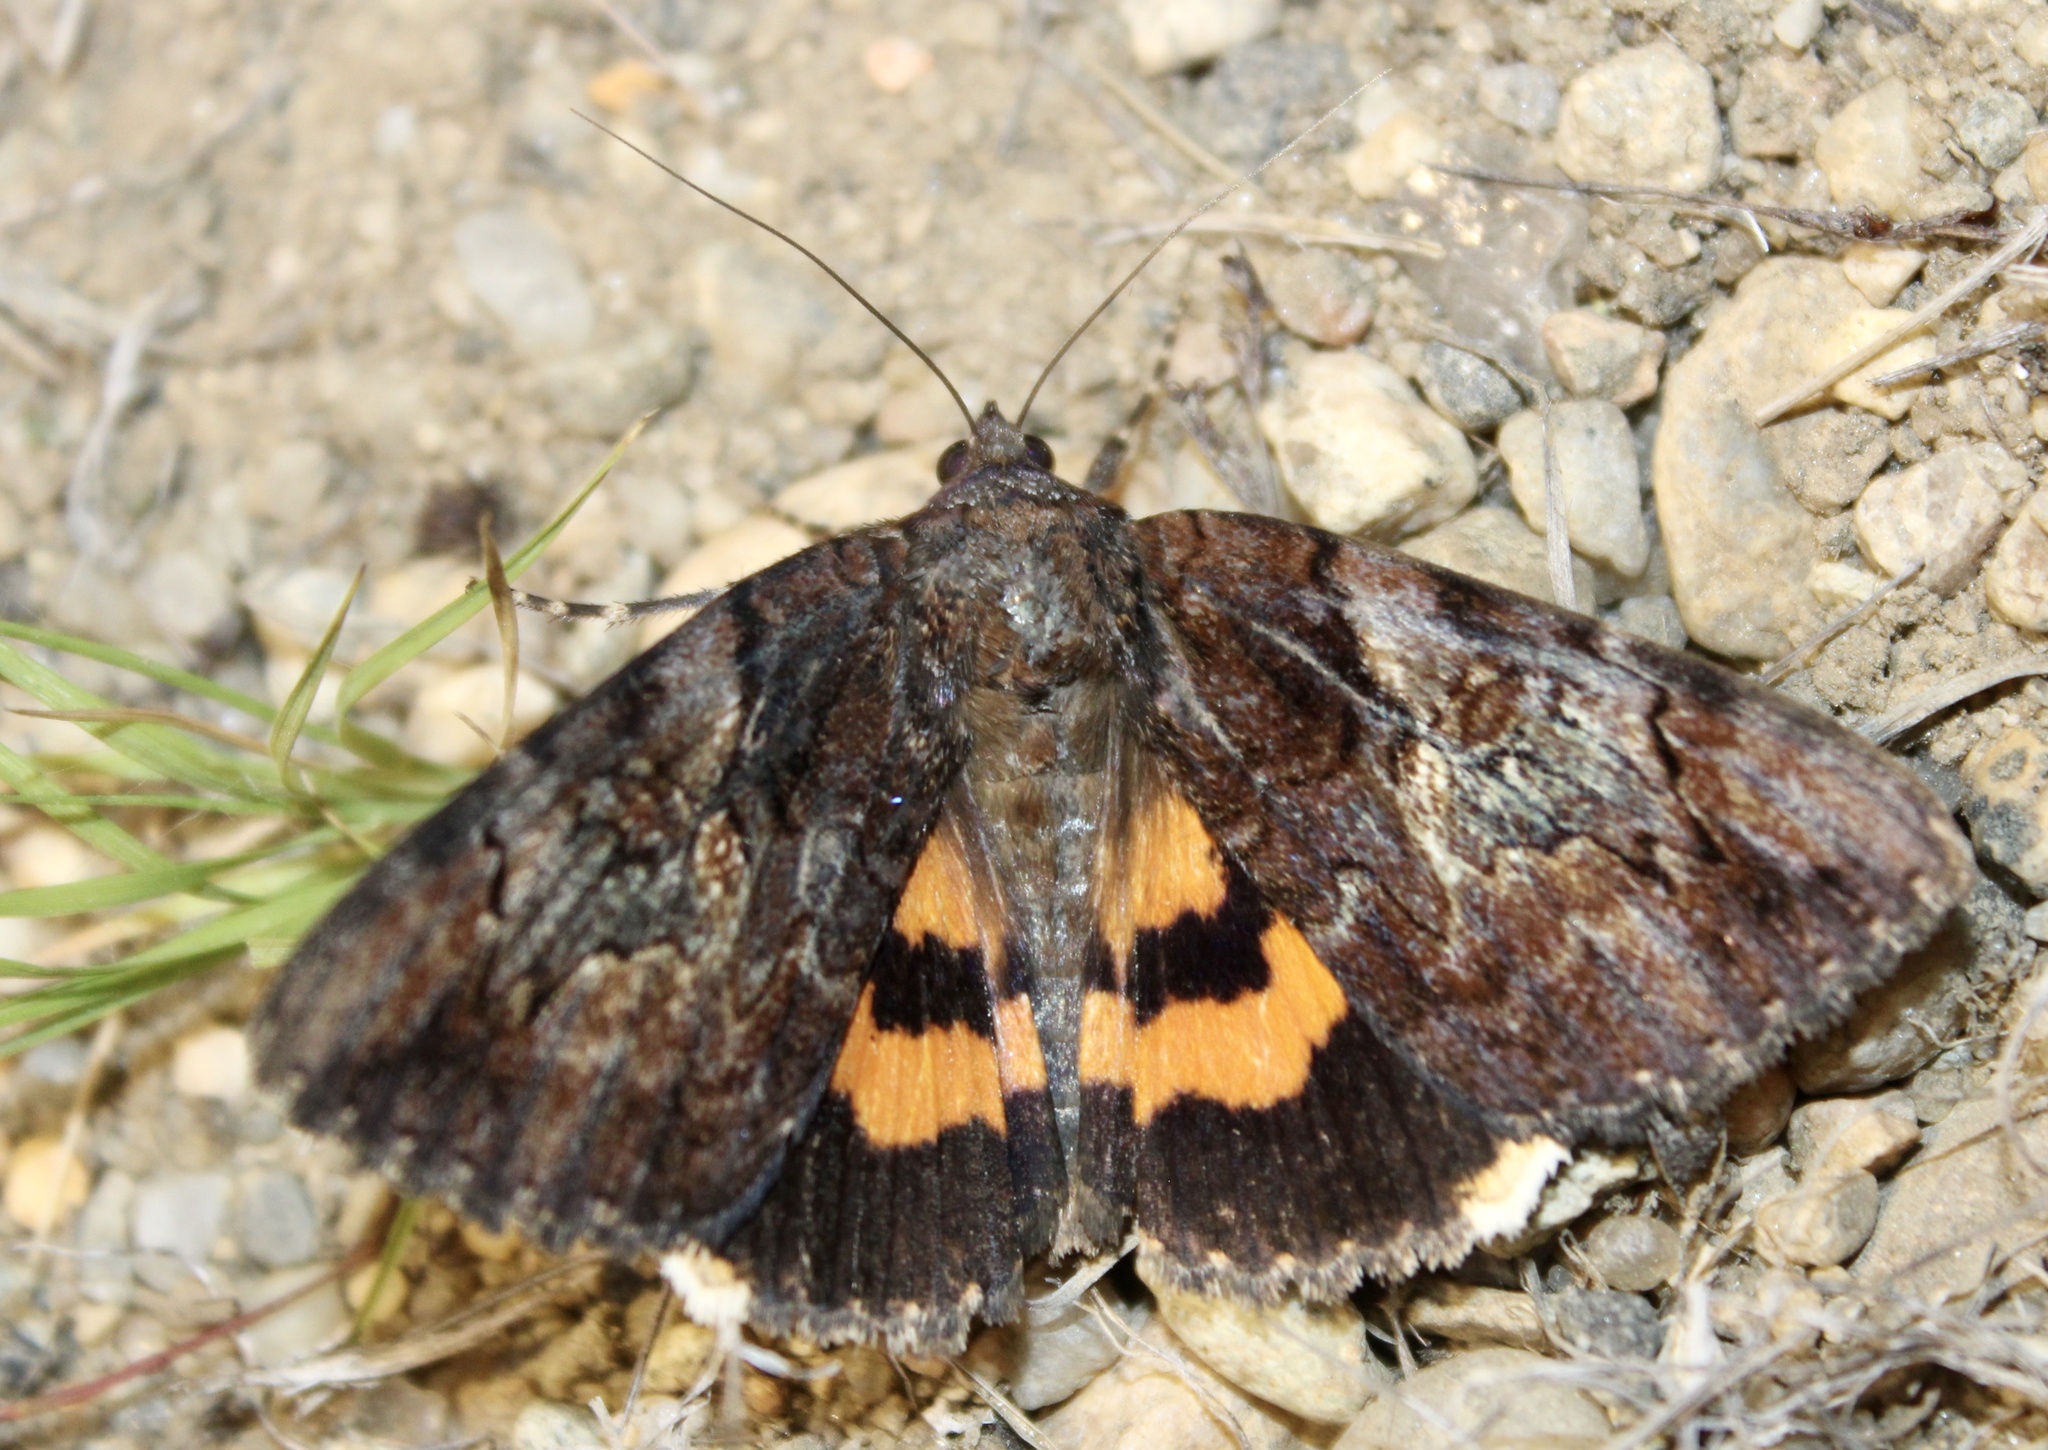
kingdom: Animalia
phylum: Arthropoda
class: Insecta
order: Lepidoptera
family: Erebidae
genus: Catocala
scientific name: Catocala muliercula
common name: The little wife underwing
